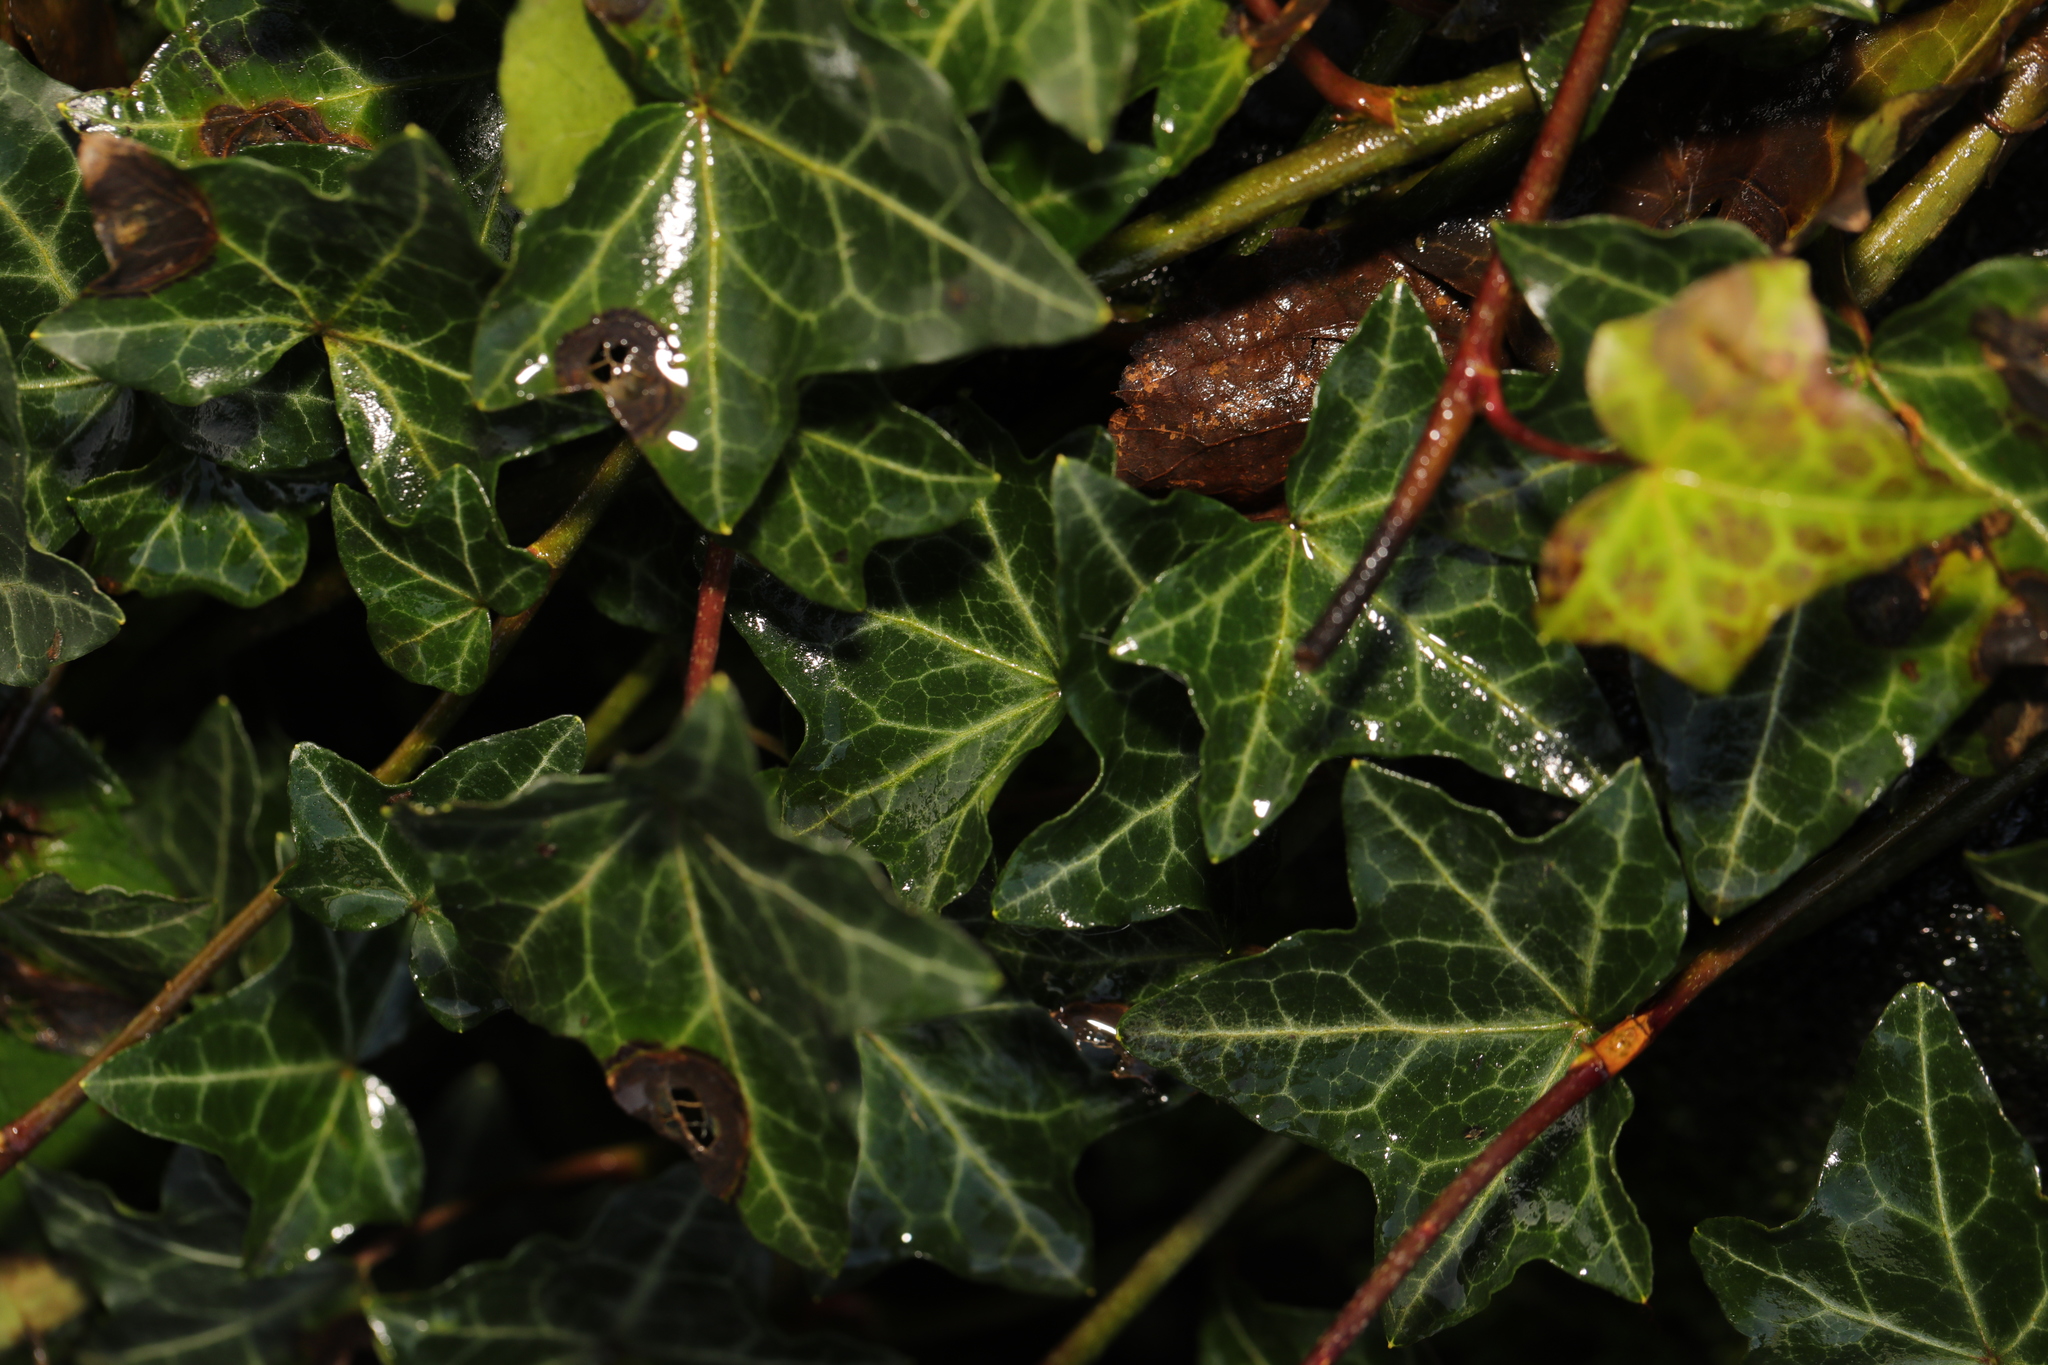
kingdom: Plantae
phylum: Tracheophyta
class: Magnoliopsida
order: Apiales
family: Araliaceae
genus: Hedera
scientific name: Hedera helix
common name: Ivy
